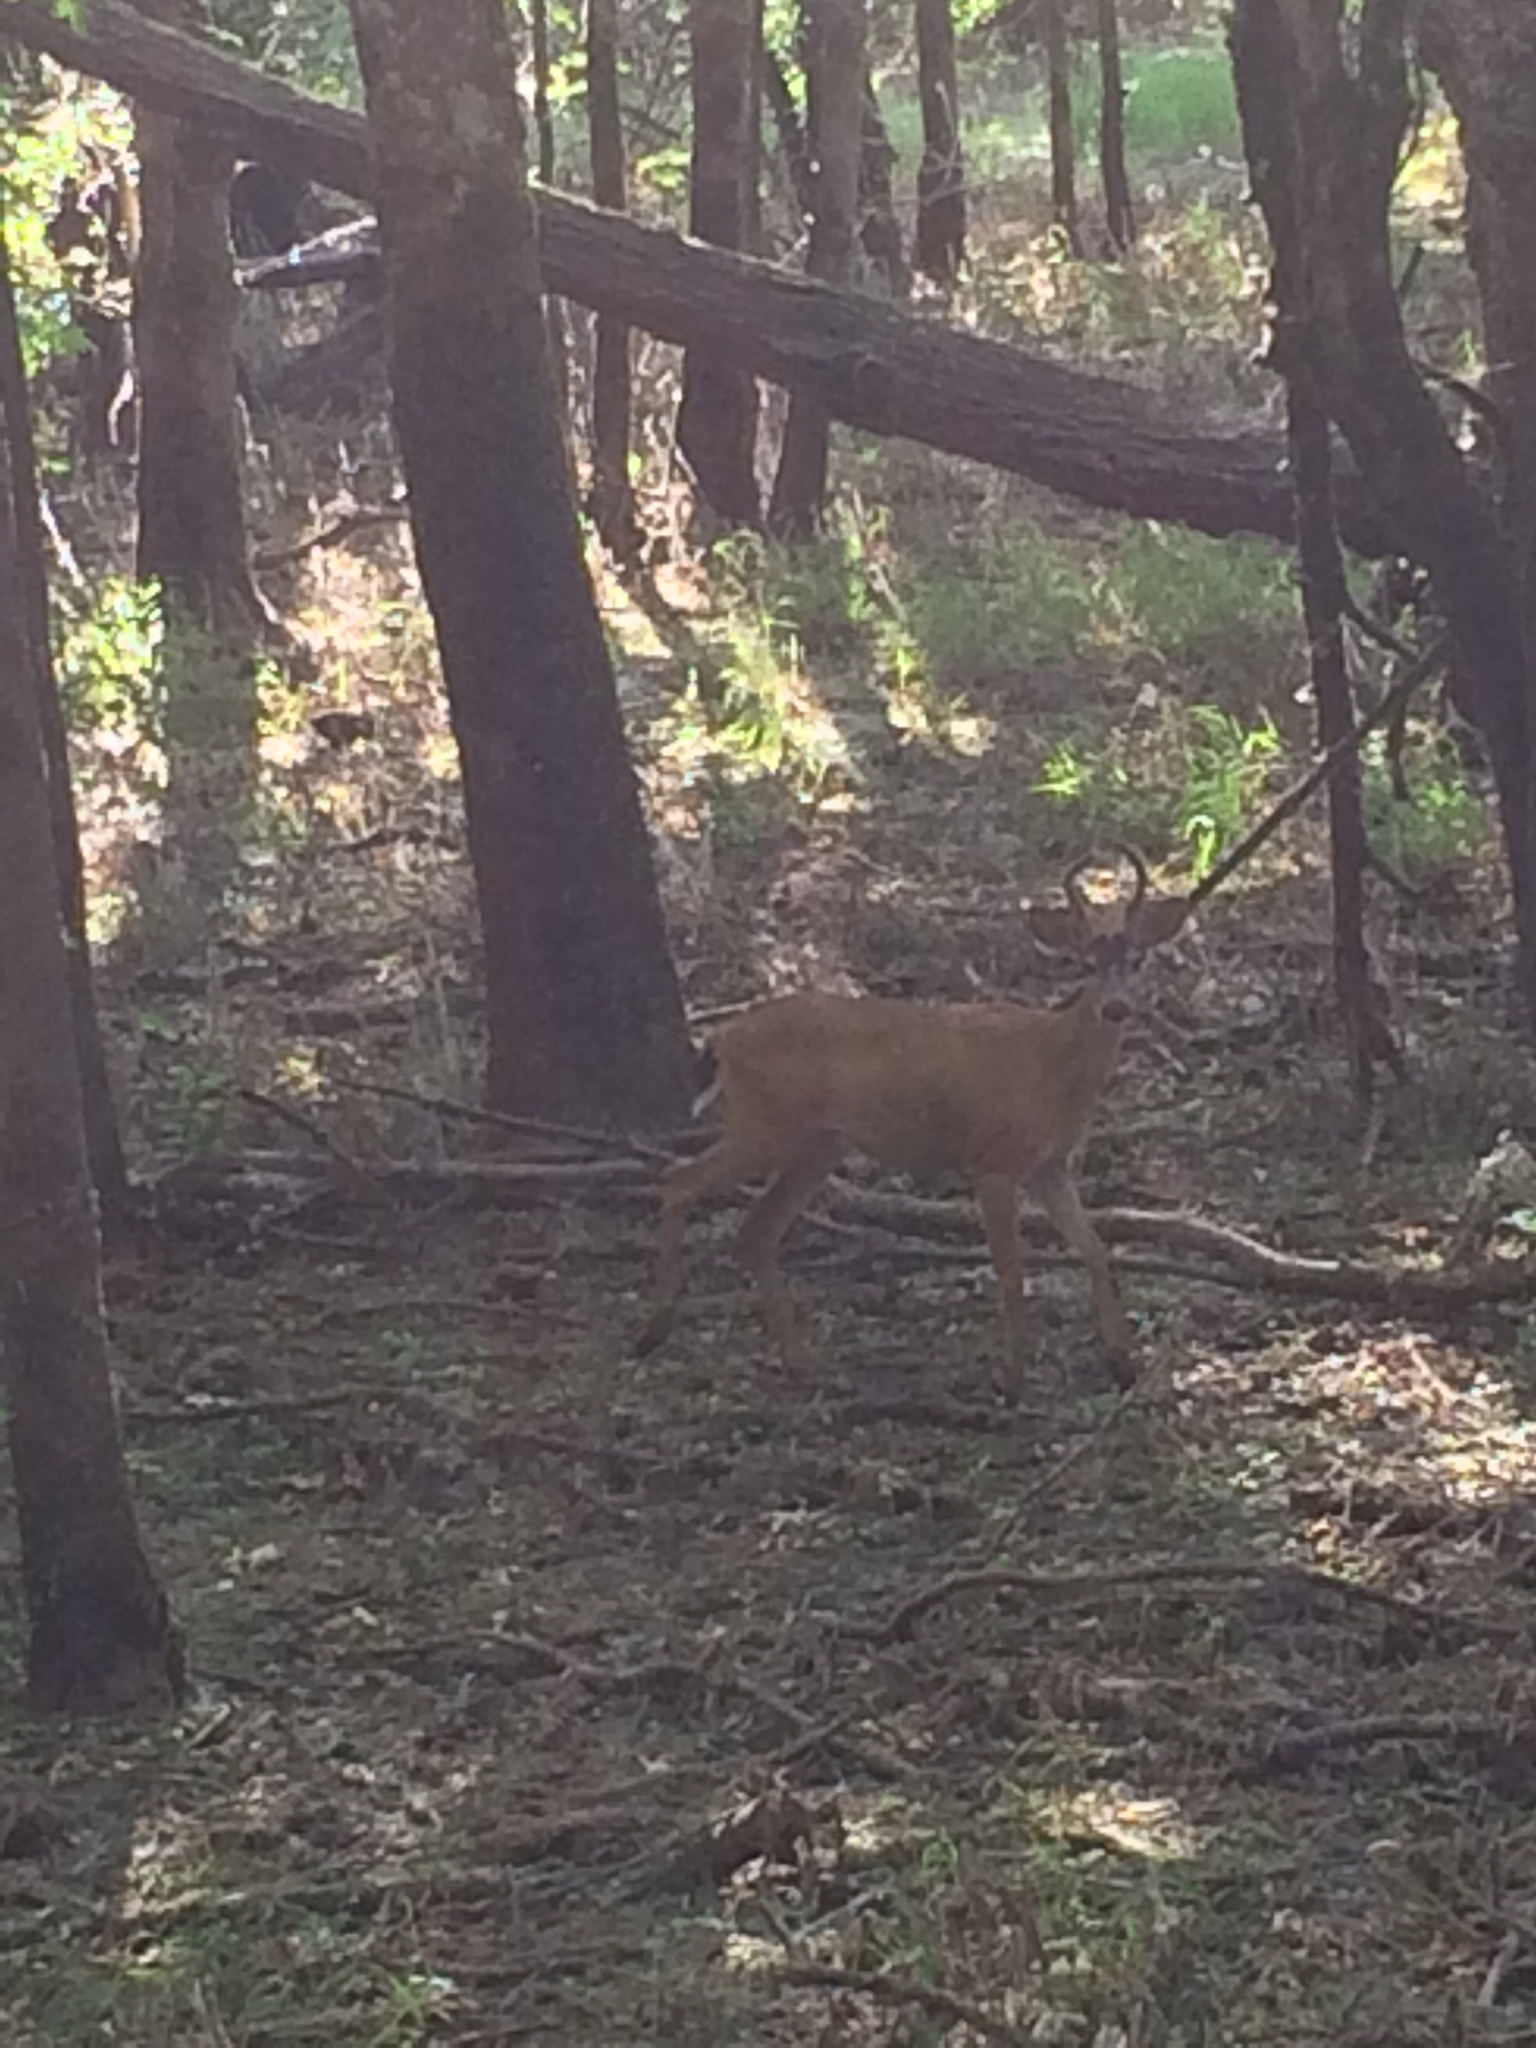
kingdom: Animalia
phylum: Chordata
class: Mammalia
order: Artiodactyla
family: Cervidae
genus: Odocoileus
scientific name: Odocoileus hemionus
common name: Mule deer
